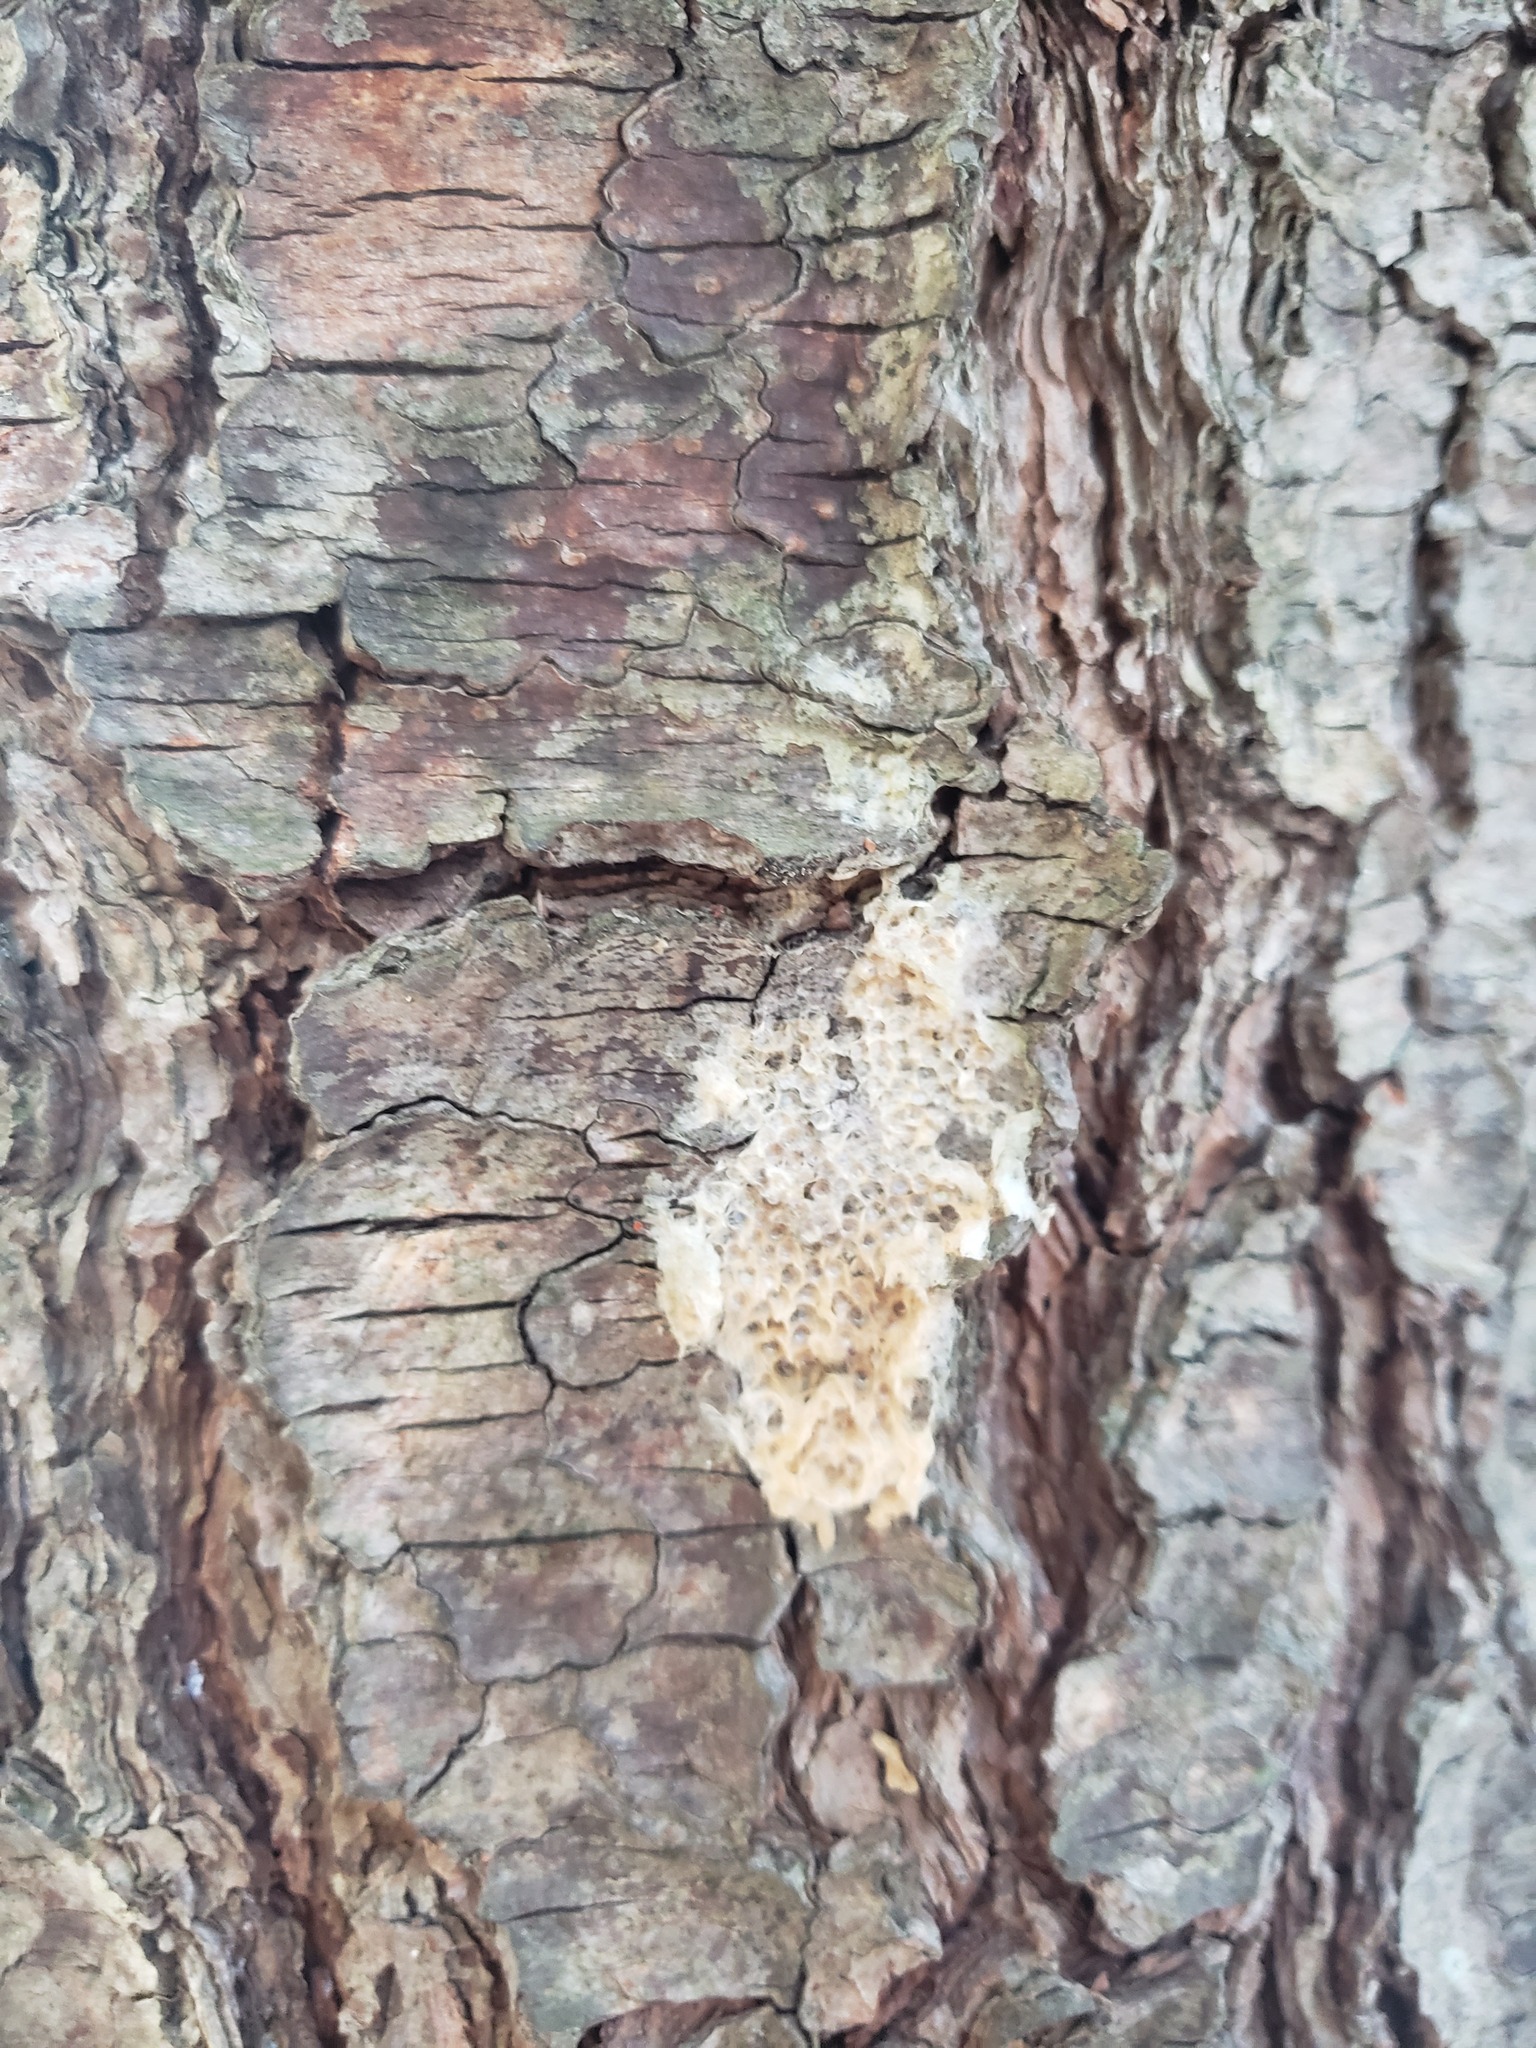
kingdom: Animalia
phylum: Arthropoda
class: Insecta
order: Lepidoptera
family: Erebidae
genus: Lymantria
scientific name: Lymantria dispar
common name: Gypsy moth
